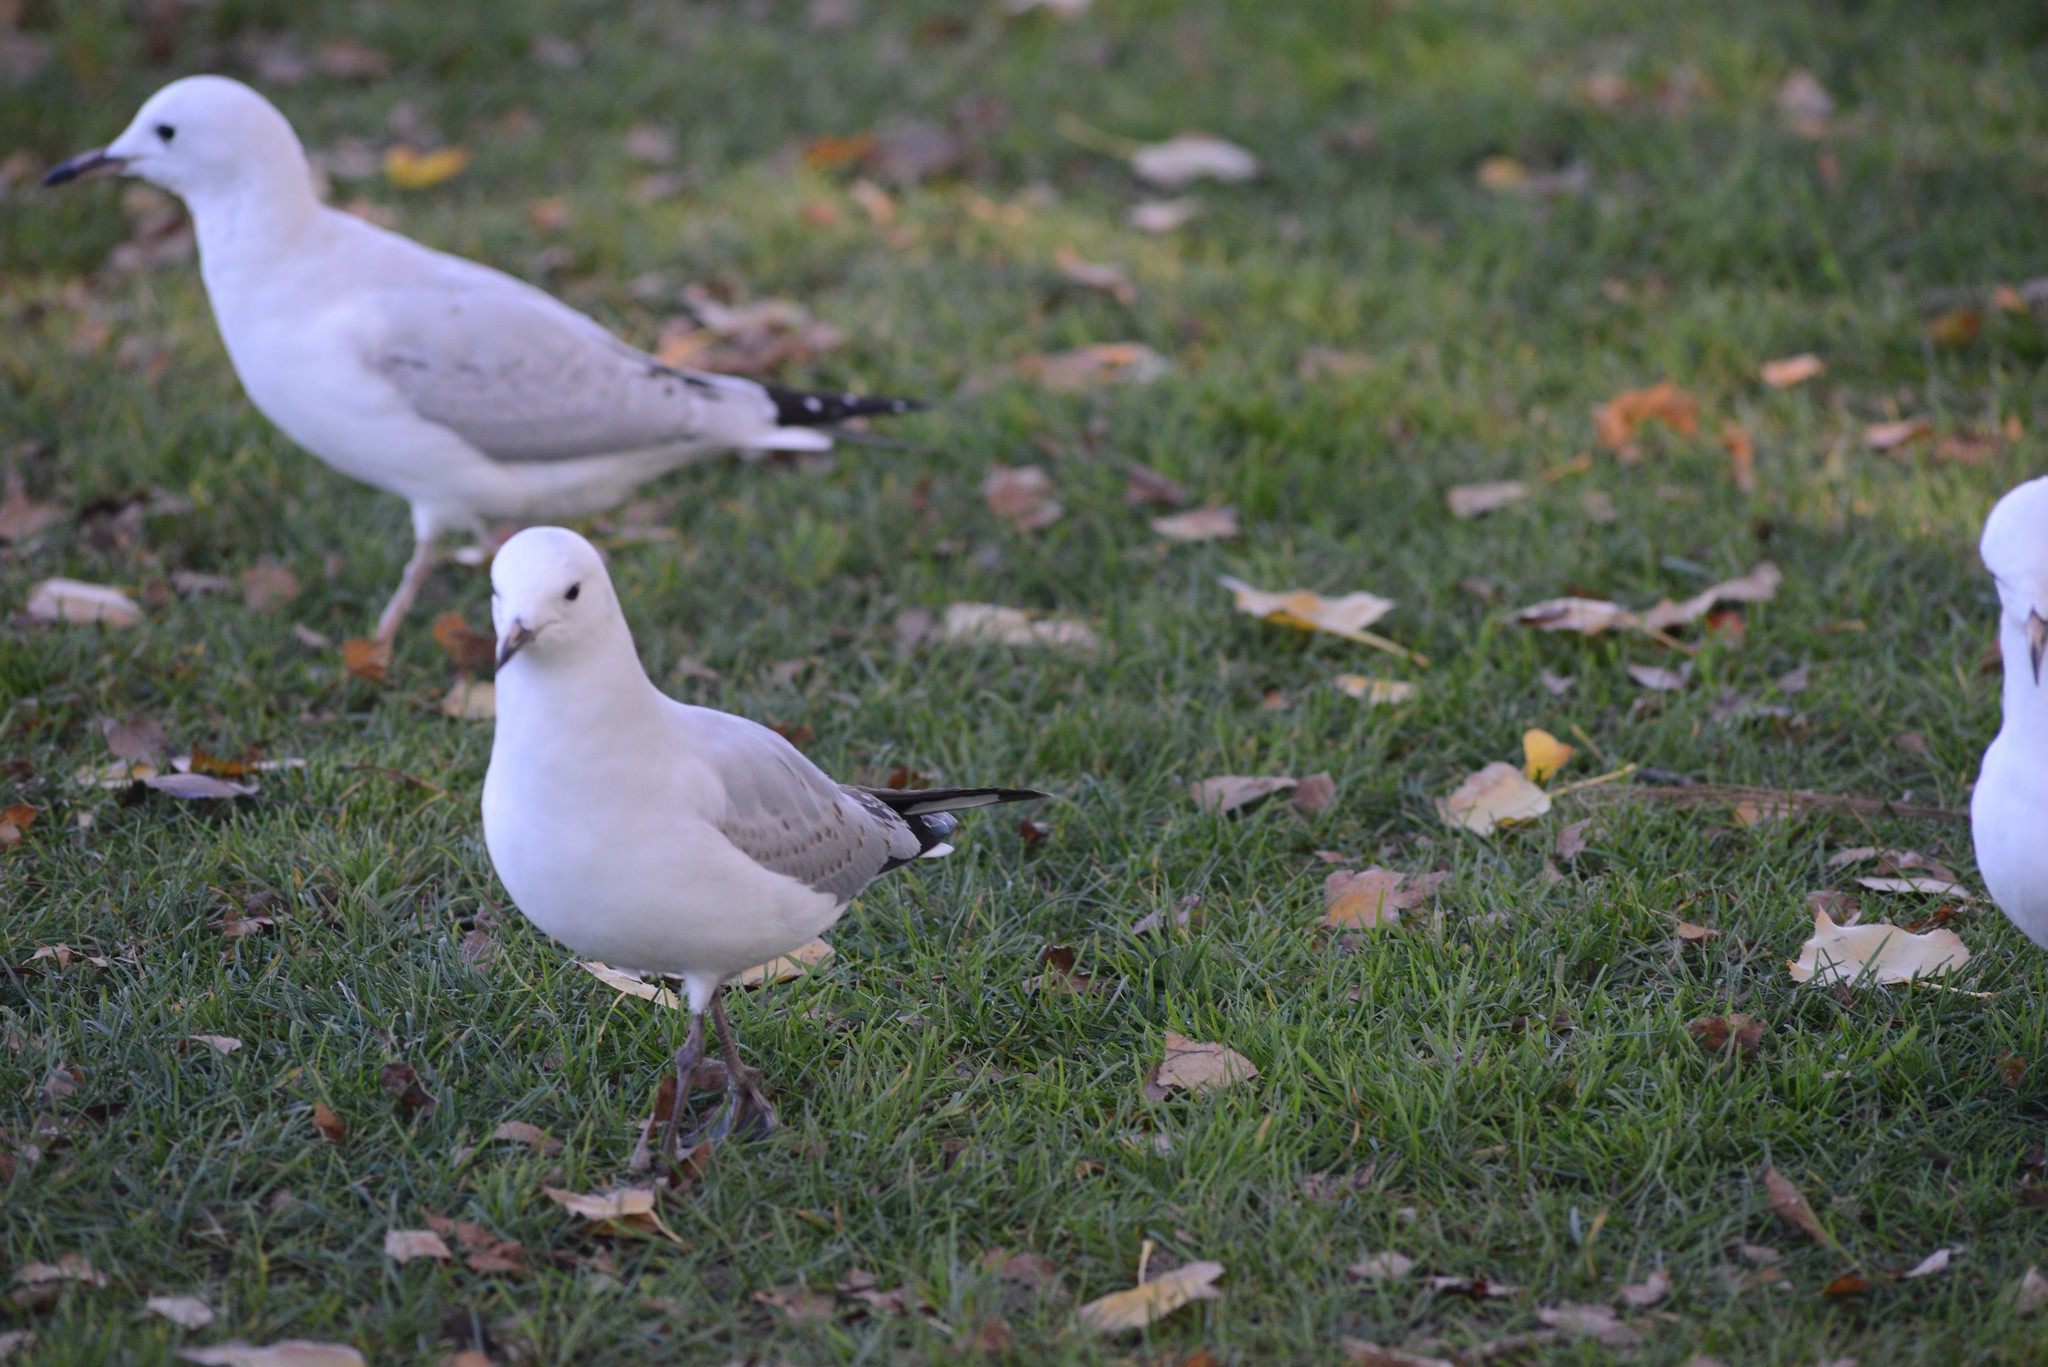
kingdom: Animalia
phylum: Chordata
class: Aves
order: Charadriiformes
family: Laridae
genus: Chroicocephalus
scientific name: Chroicocephalus novaehollandiae
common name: Silver gull
